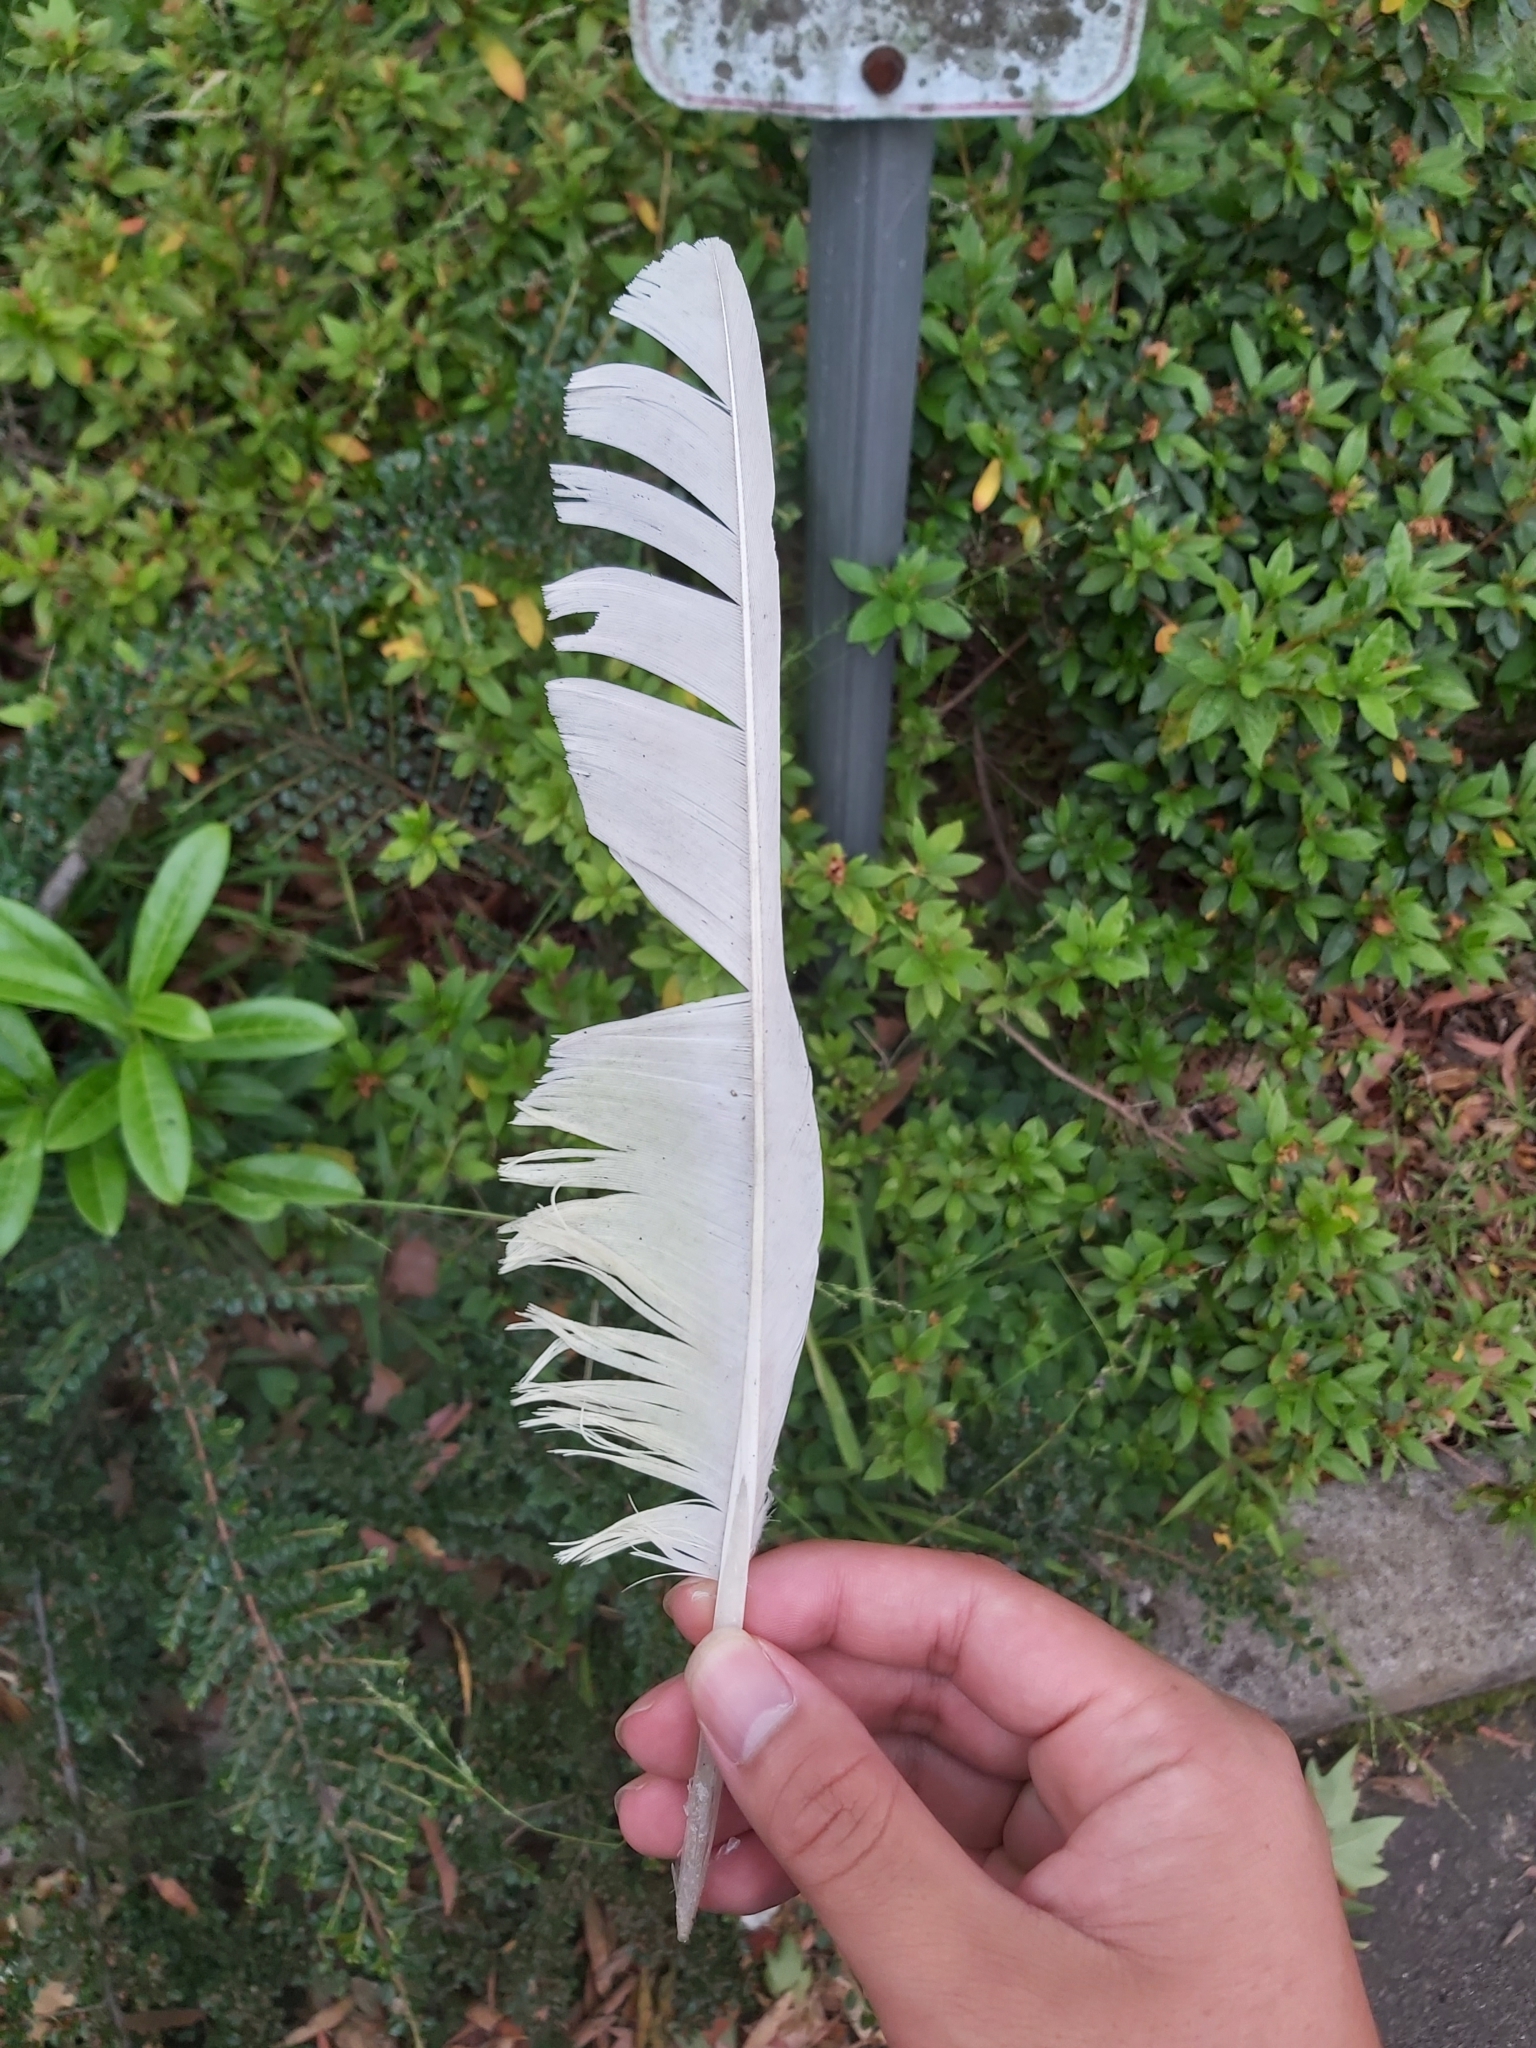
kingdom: Animalia
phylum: Chordata
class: Aves
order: Psittaciformes
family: Psittacidae
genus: Cacatua
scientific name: Cacatua galerita
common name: Sulphur-crested cockatoo
